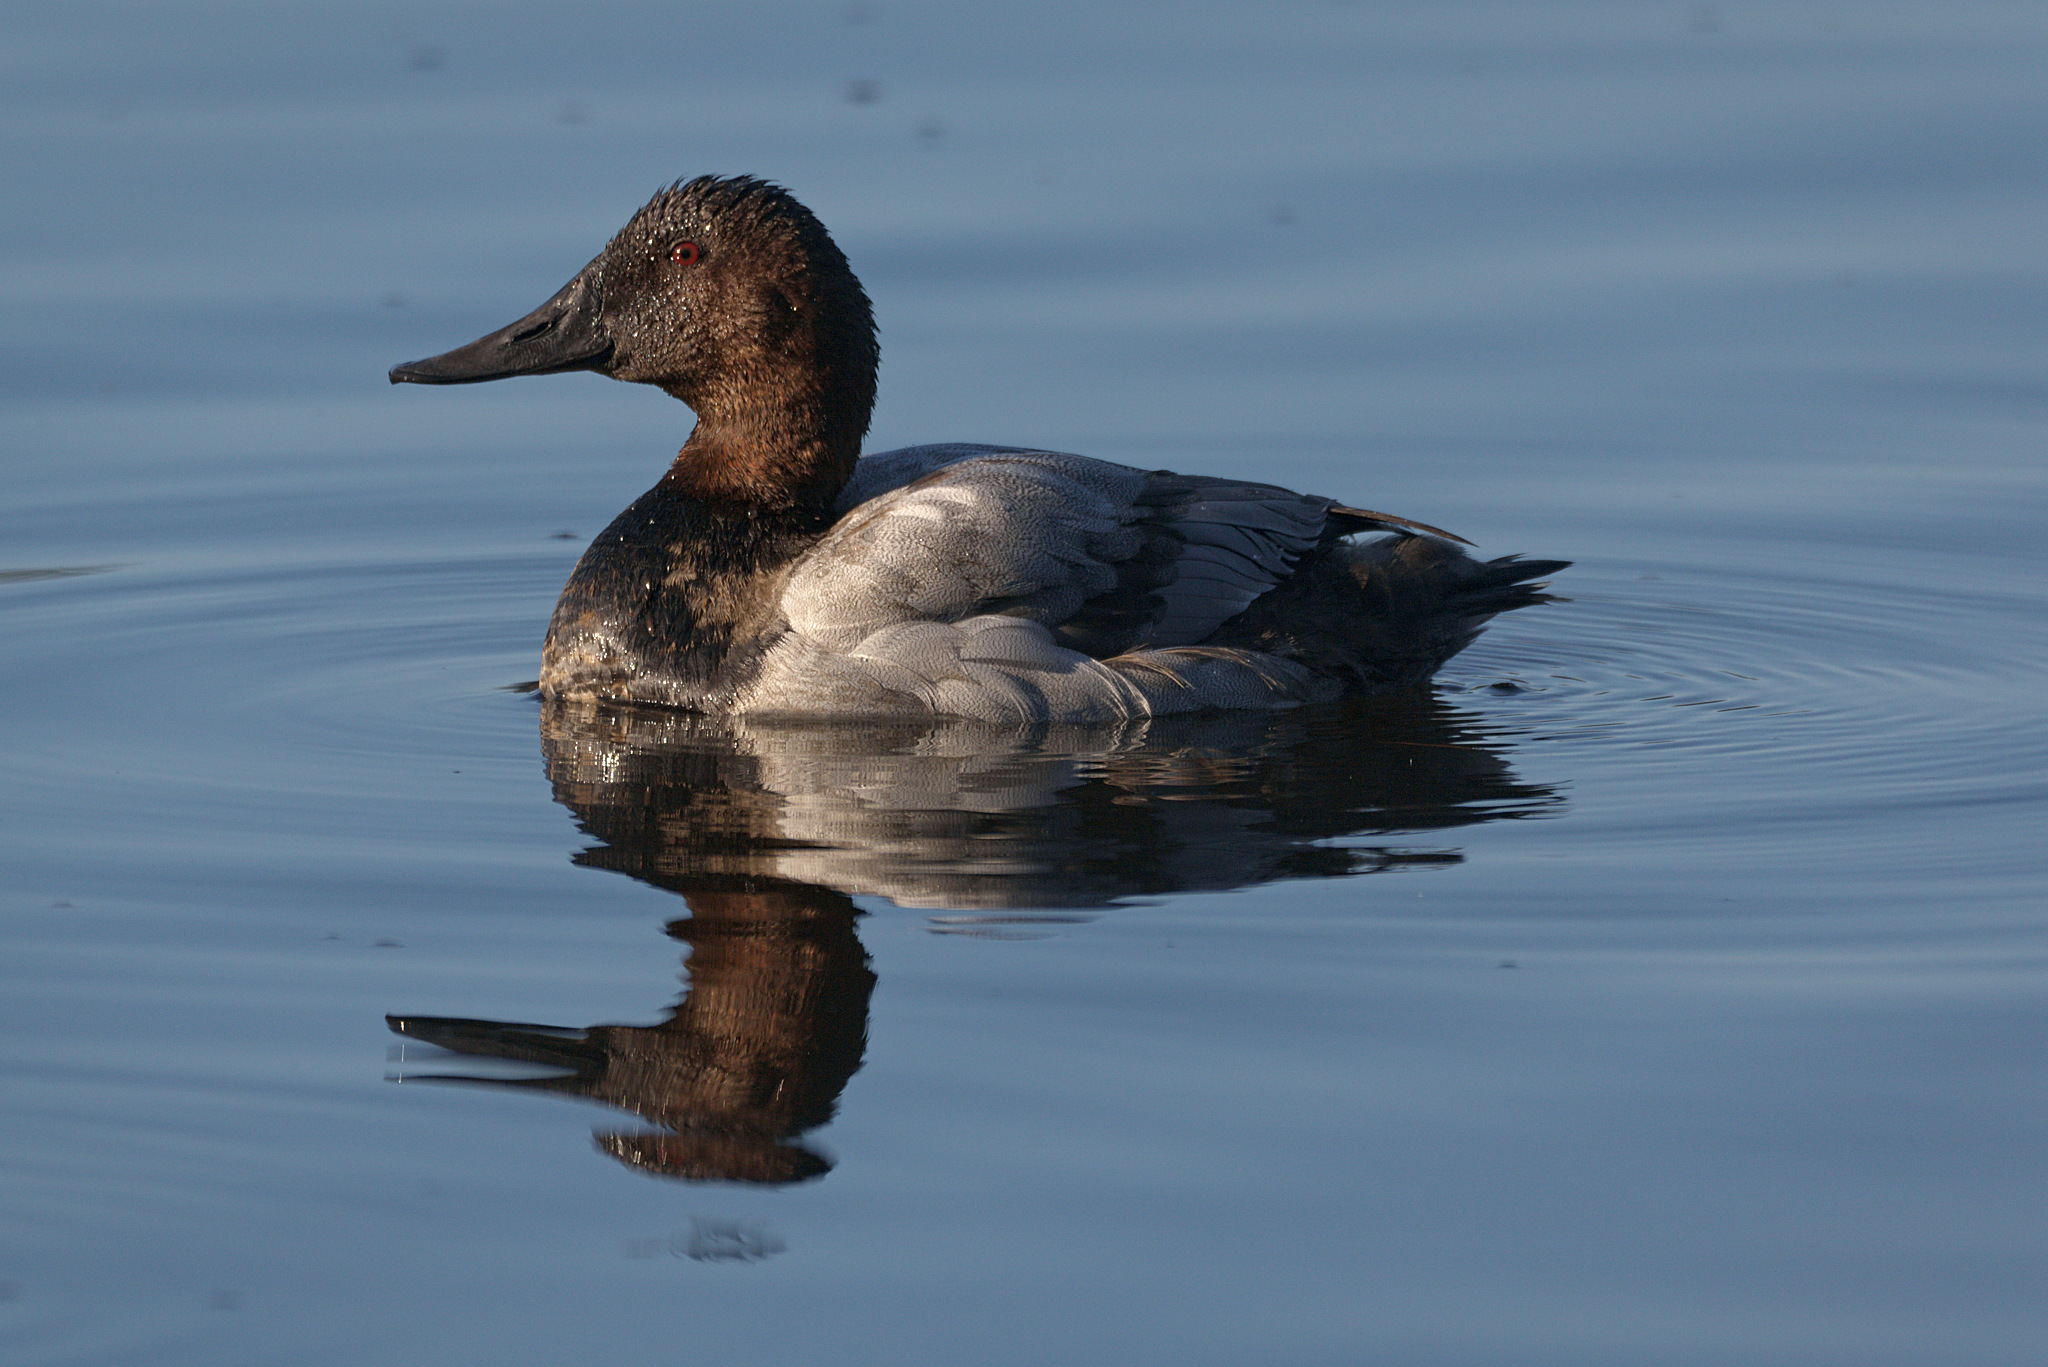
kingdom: Animalia
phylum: Chordata
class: Aves
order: Anseriformes
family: Anatidae
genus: Aythya
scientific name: Aythya valisineria
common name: Canvasback
